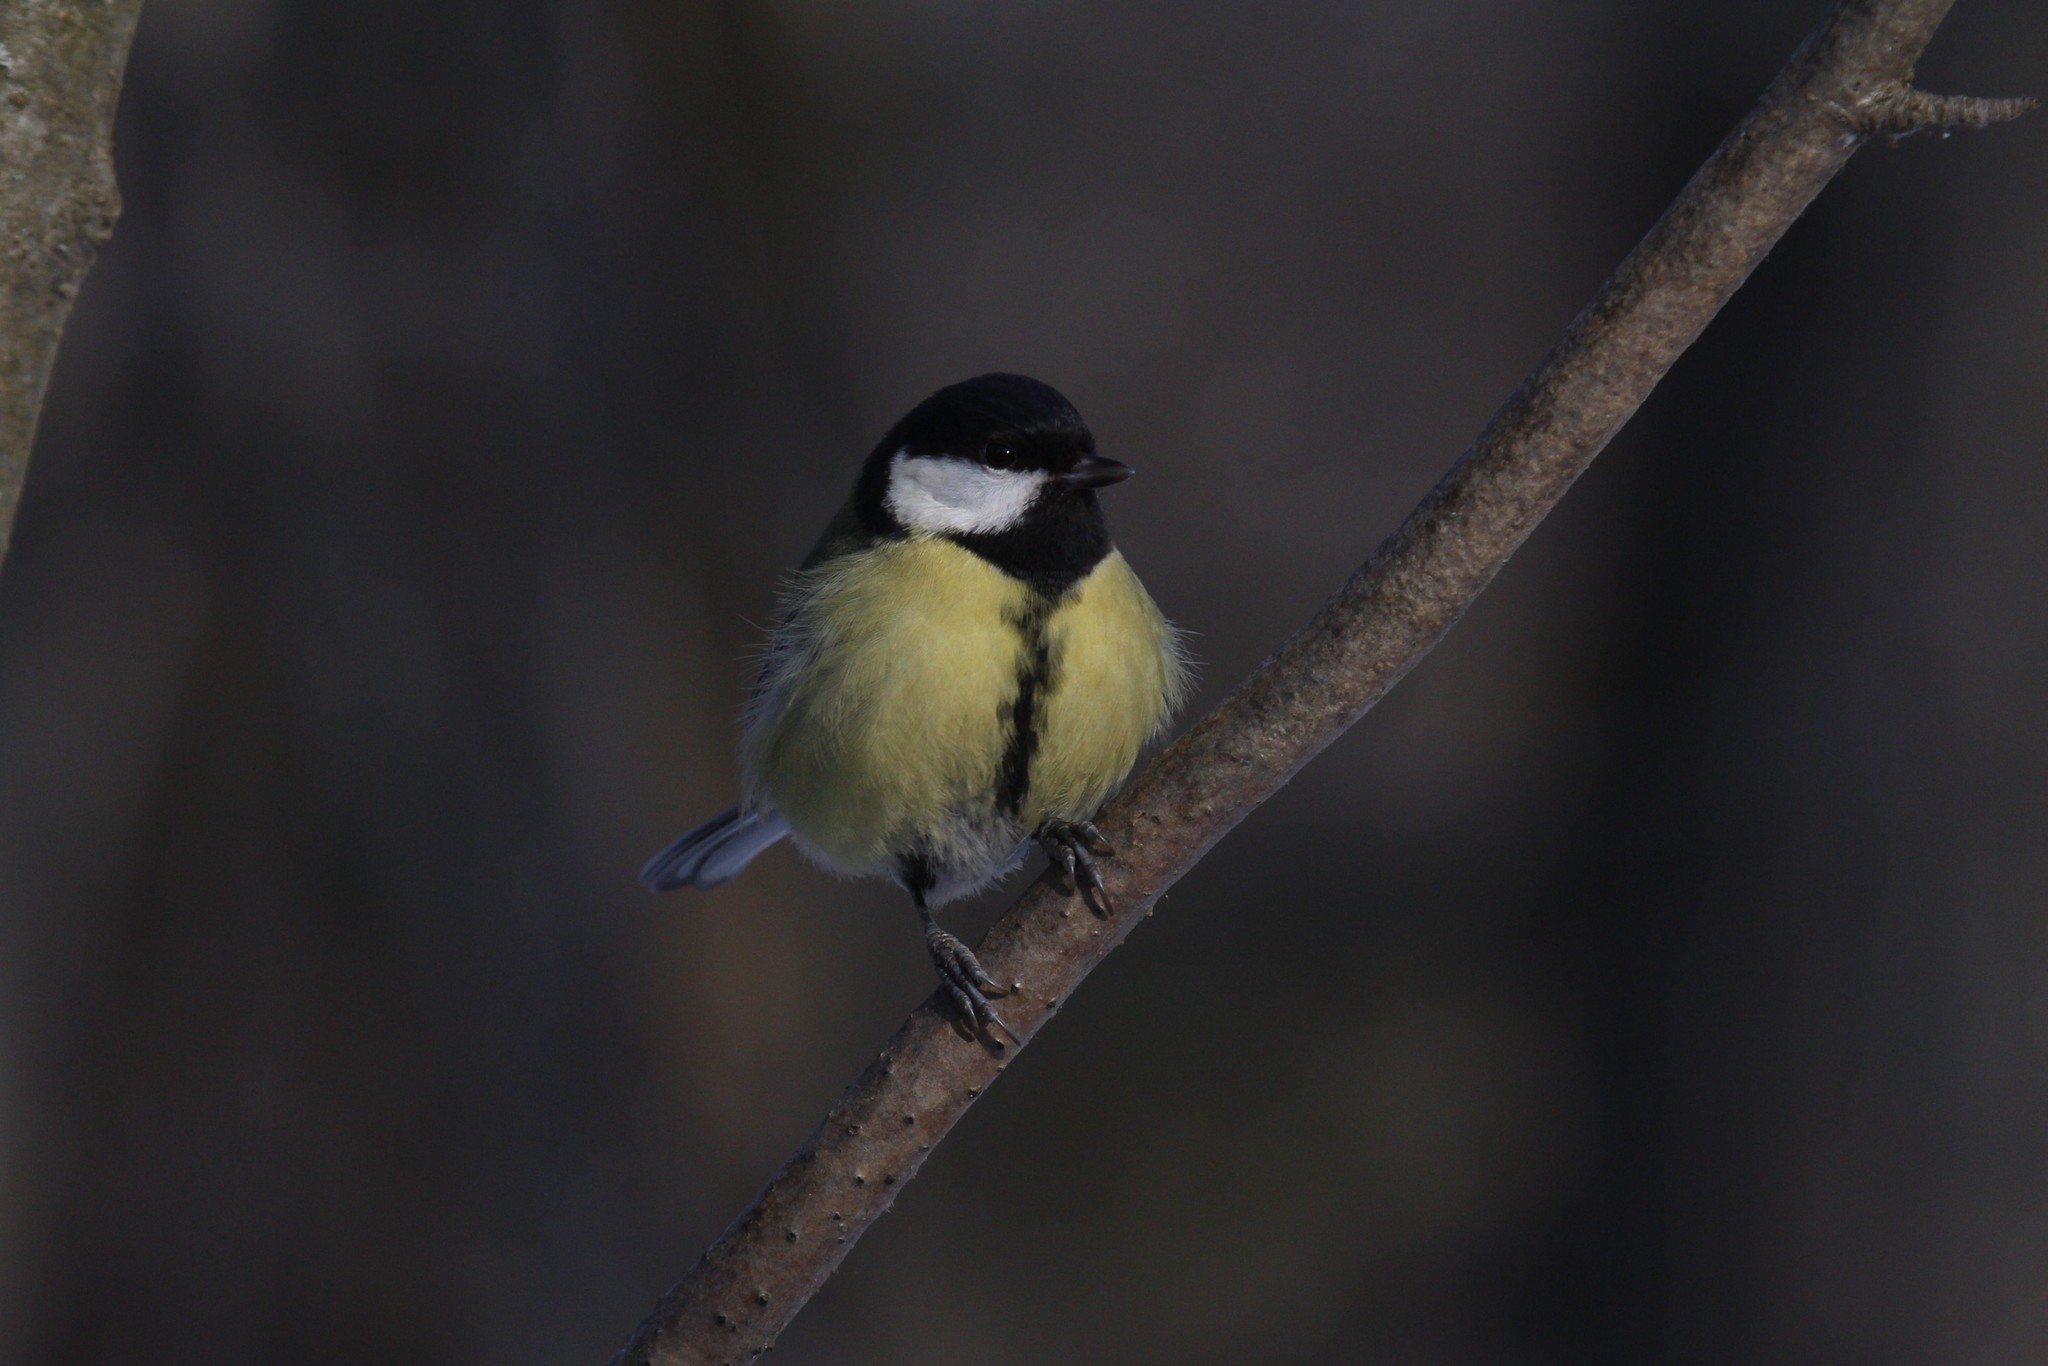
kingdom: Animalia
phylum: Chordata
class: Aves
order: Passeriformes
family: Paridae
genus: Parus
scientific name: Parus major
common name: Great tit
